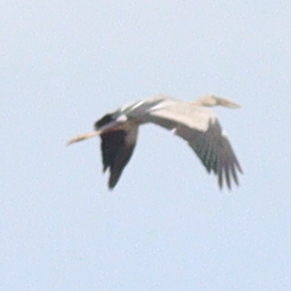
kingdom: Animalia
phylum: Chordata
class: Aves
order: Ciconiiformes
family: Ciconiidae
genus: Anastomus
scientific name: Anastomus oscitans
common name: Asian openbill
